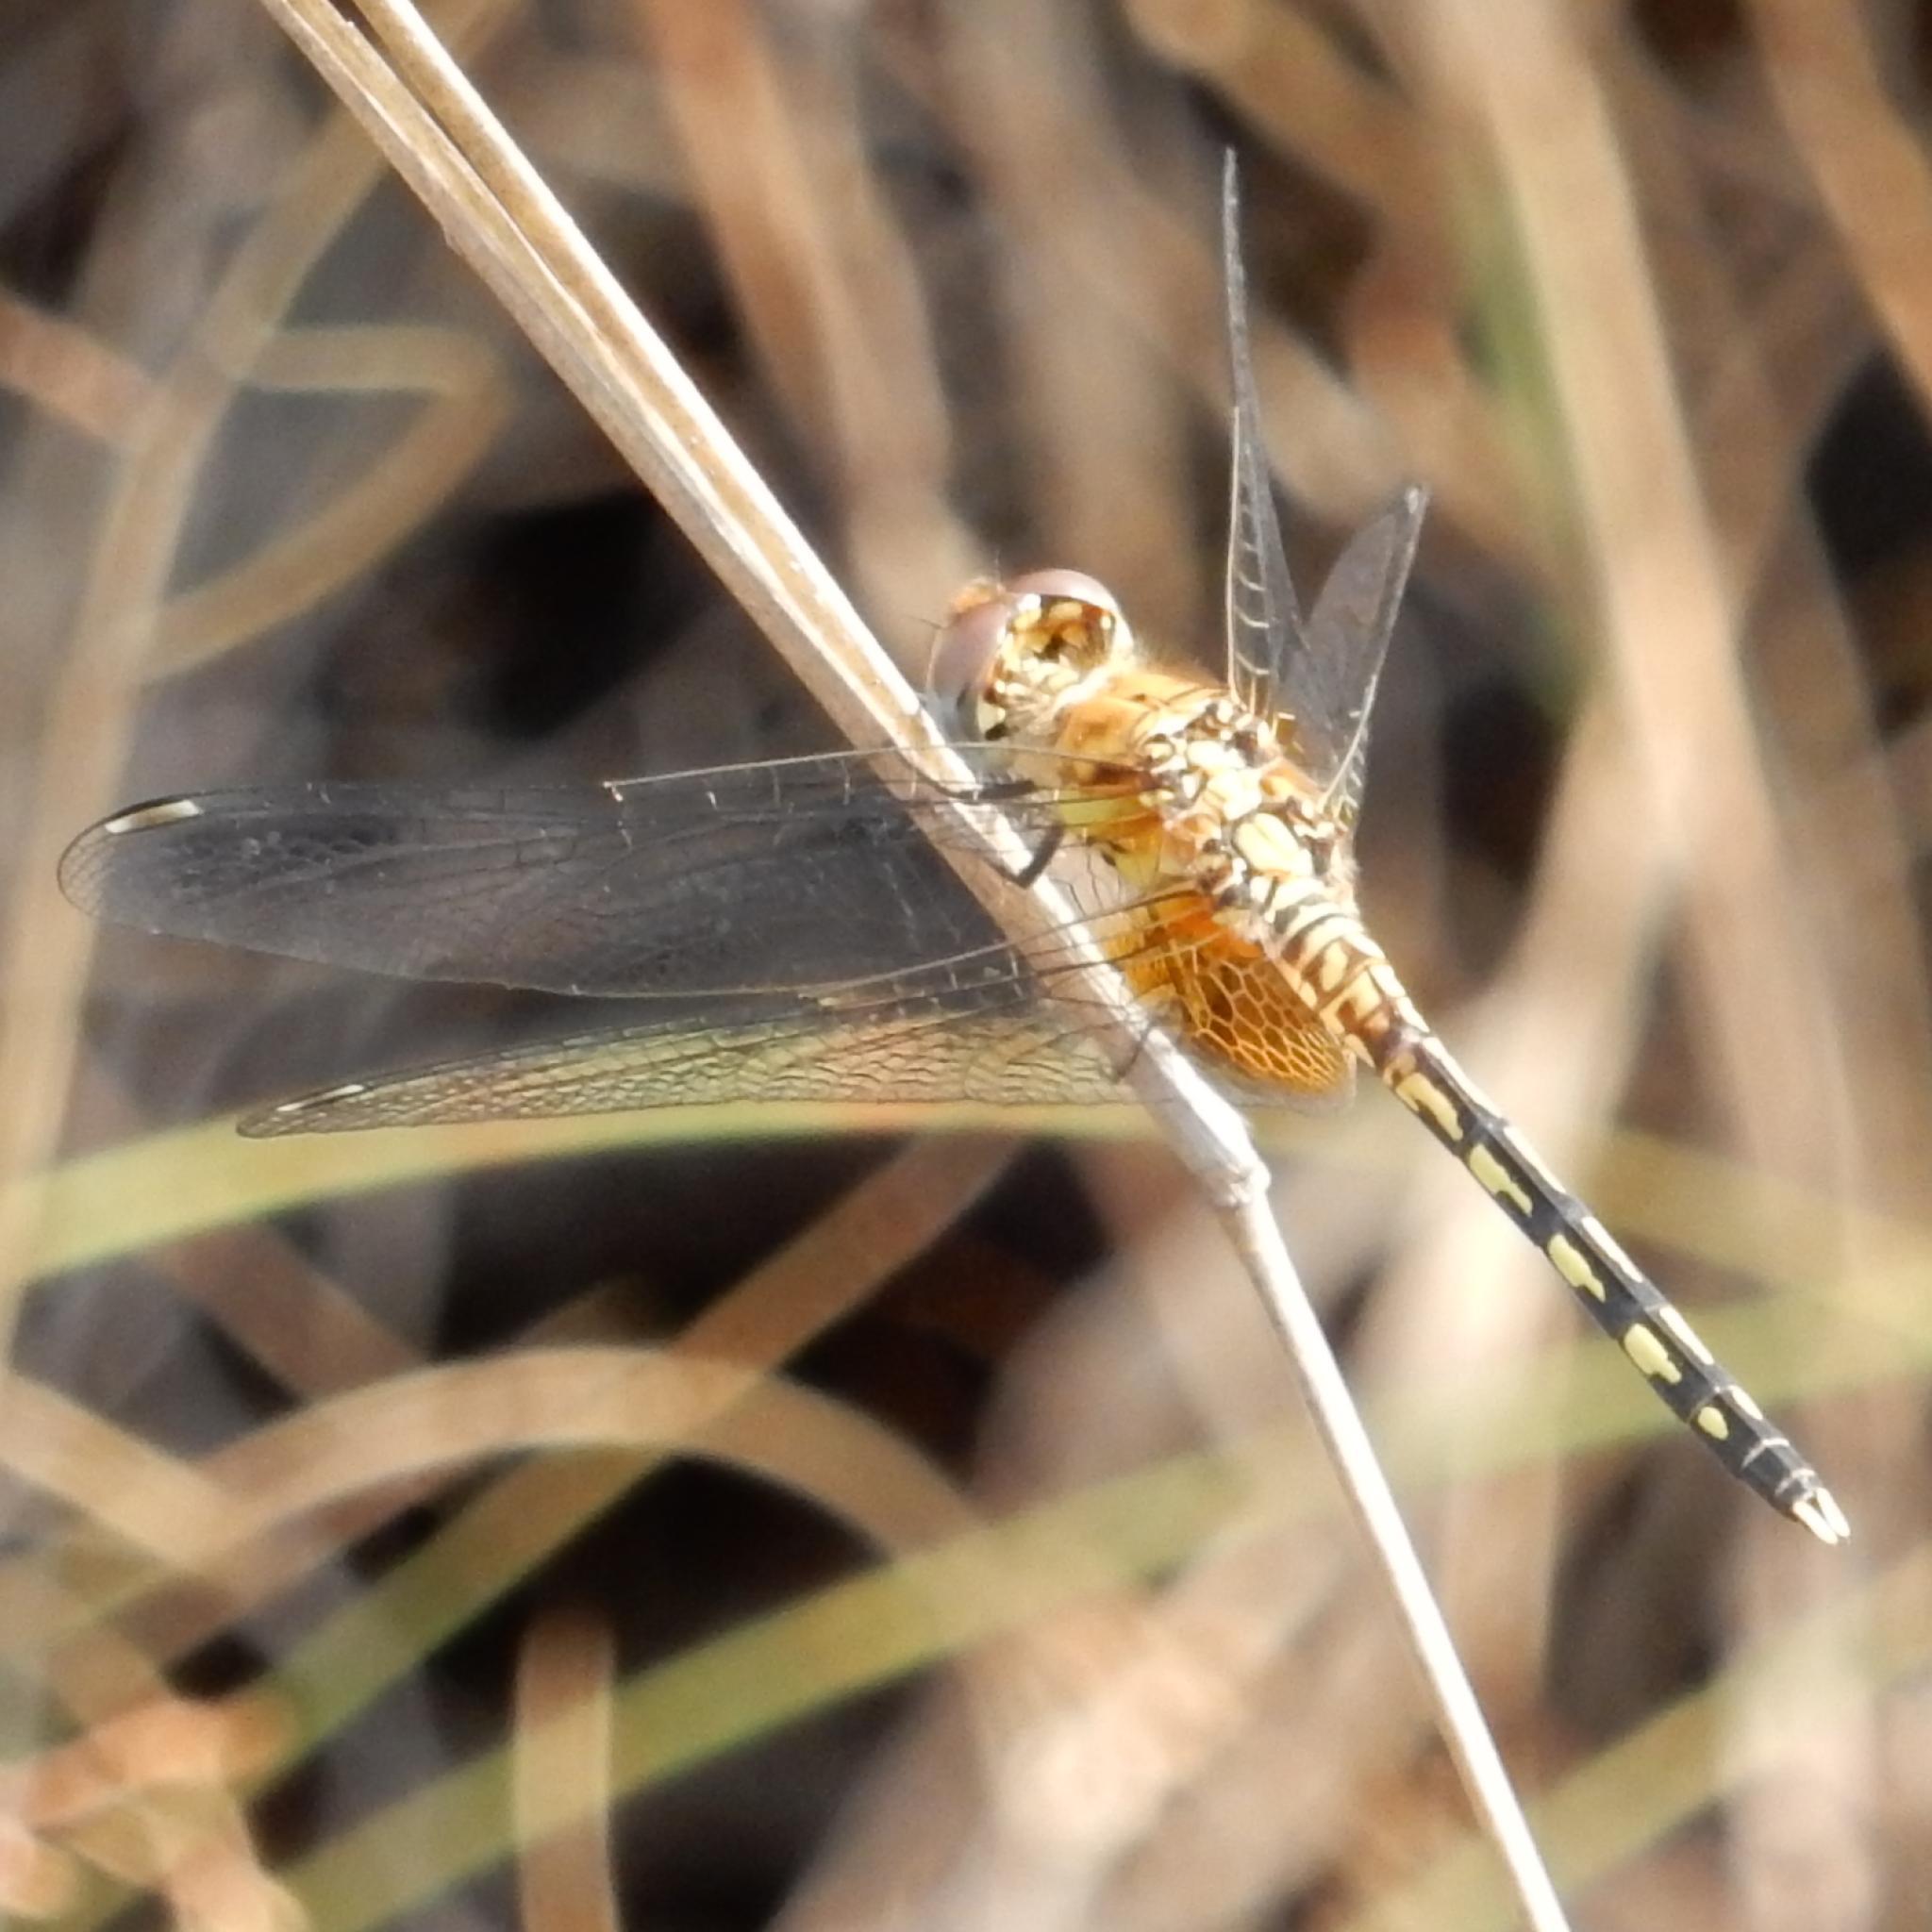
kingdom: Animalia
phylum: Arthropoda
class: Insecta
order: Odonata
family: Libellulidae
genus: Diplacodes
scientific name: Diplacodes luminans
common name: Barbet percher
